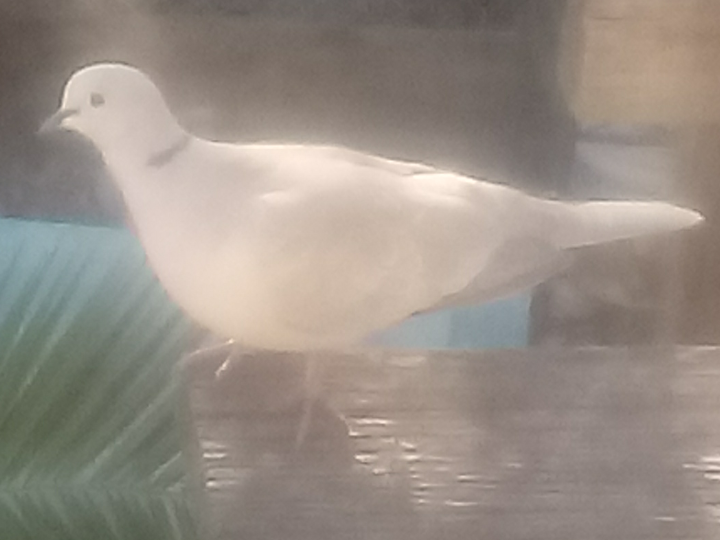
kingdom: Animalia
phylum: Chordata
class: Aves
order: Columbiformes
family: Columbidae
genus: Streptopelia
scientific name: Streptopelia decaocto
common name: Eurasian collared dove
